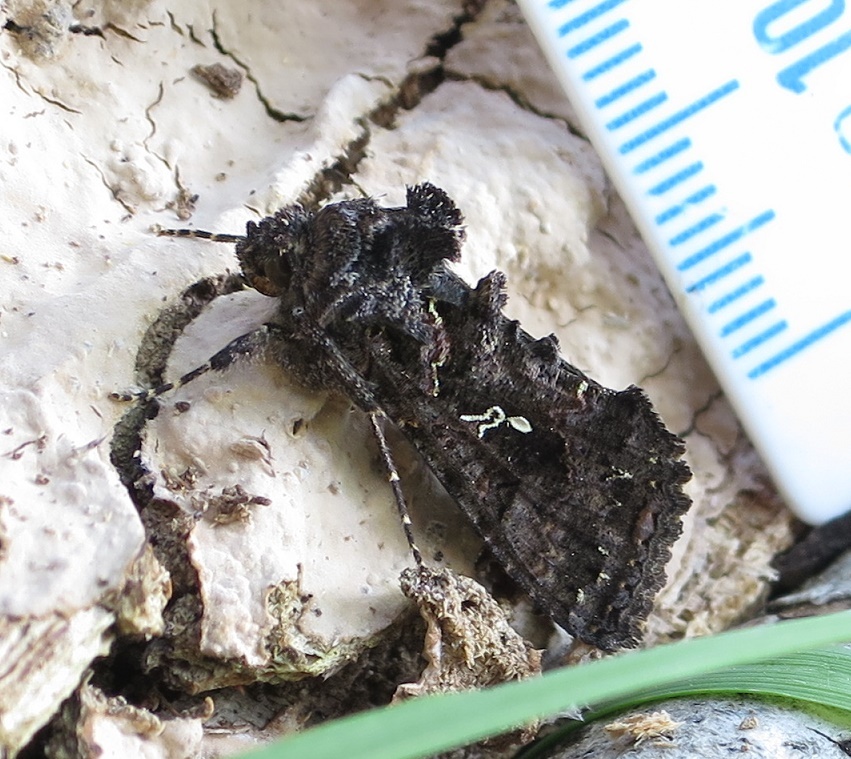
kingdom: Animalia
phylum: Arthropoda
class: Insecta
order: Lepidoptera
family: Noctuidae
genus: Ctenoplusia
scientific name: Ctenoplusia limbirena
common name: Scar bank gem
